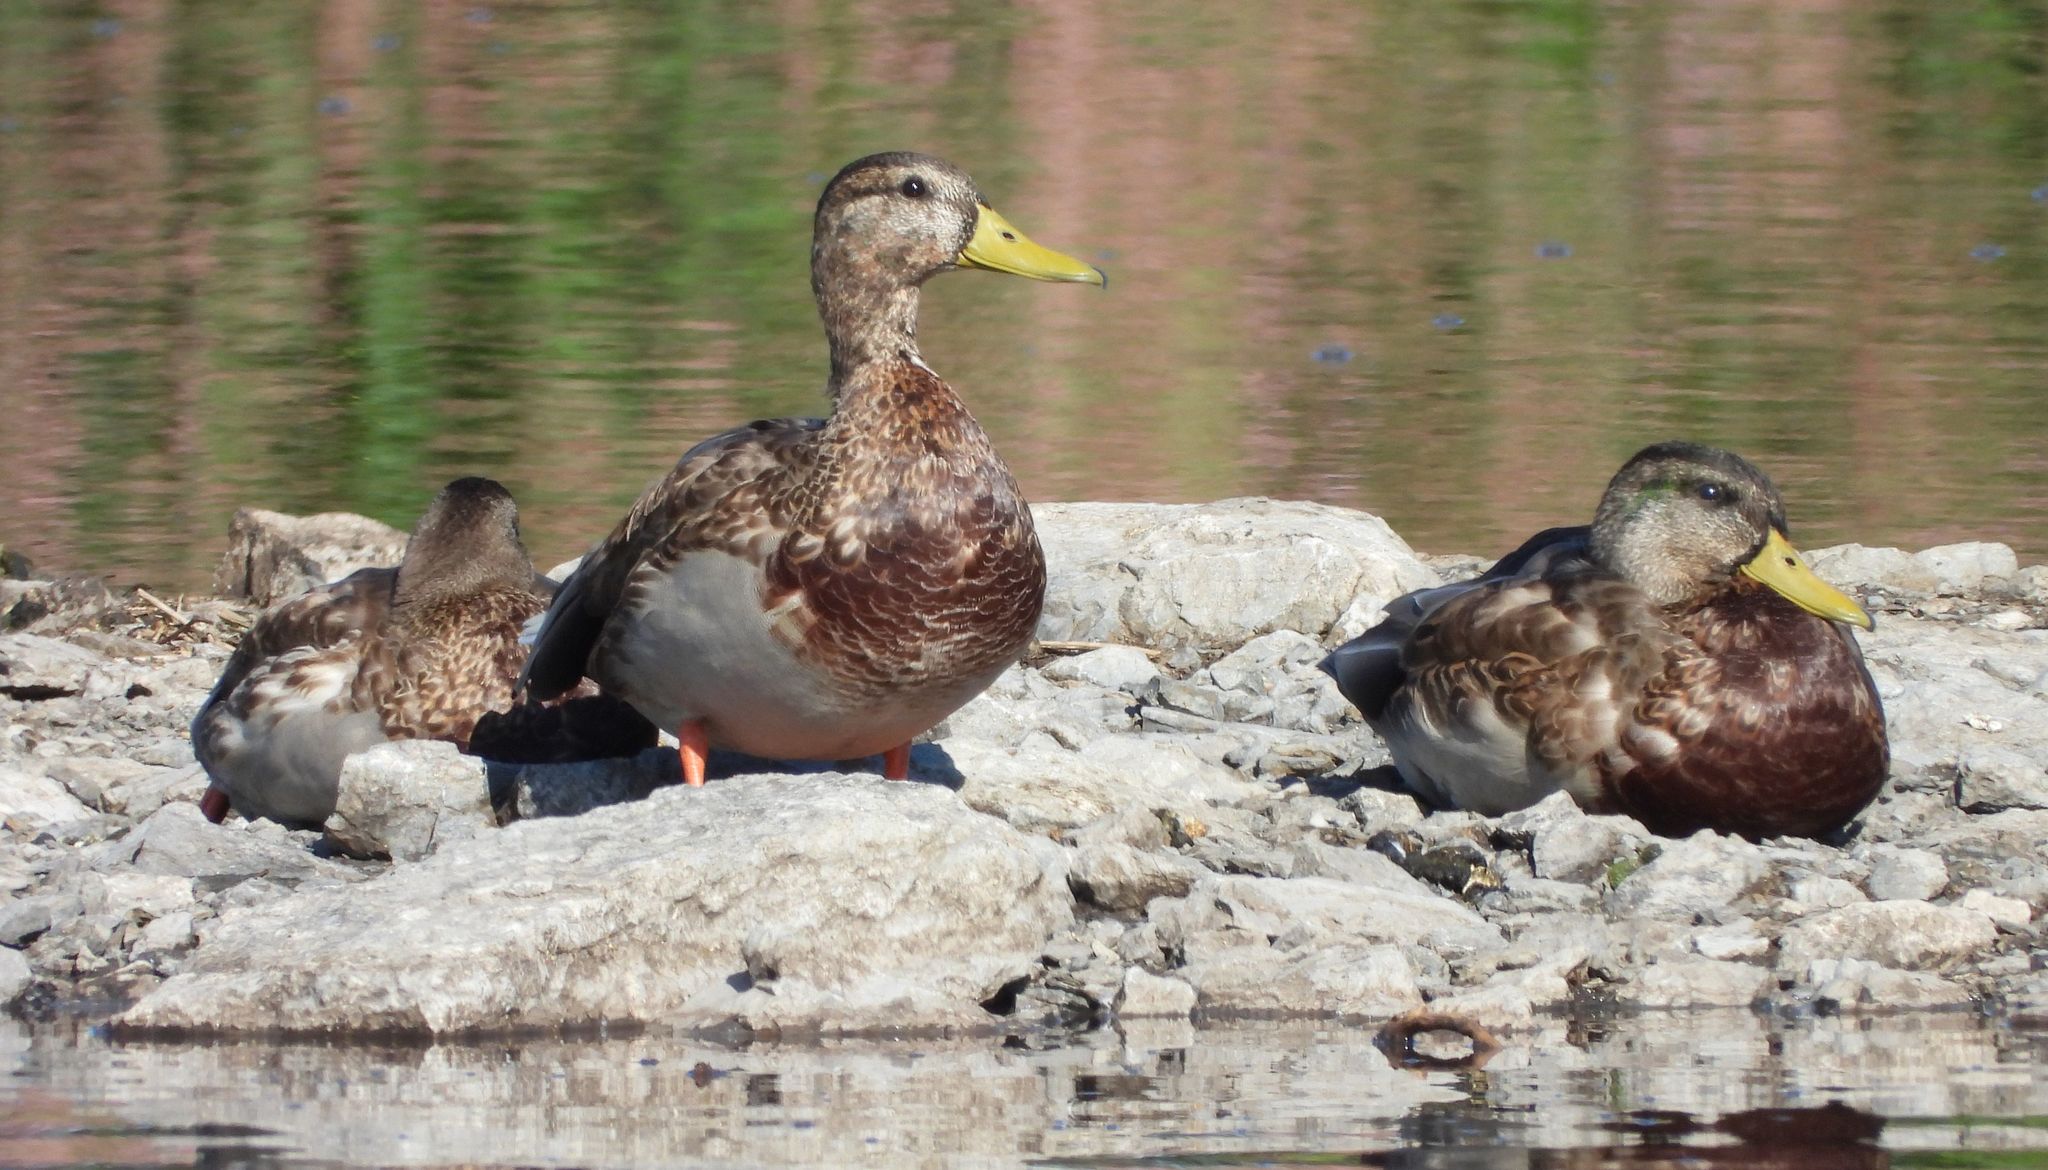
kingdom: Animalia
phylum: Chordata
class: Aves
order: Anseriformes
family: Anatidae
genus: Anas
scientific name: Anas platyrhynchos
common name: Mallard
